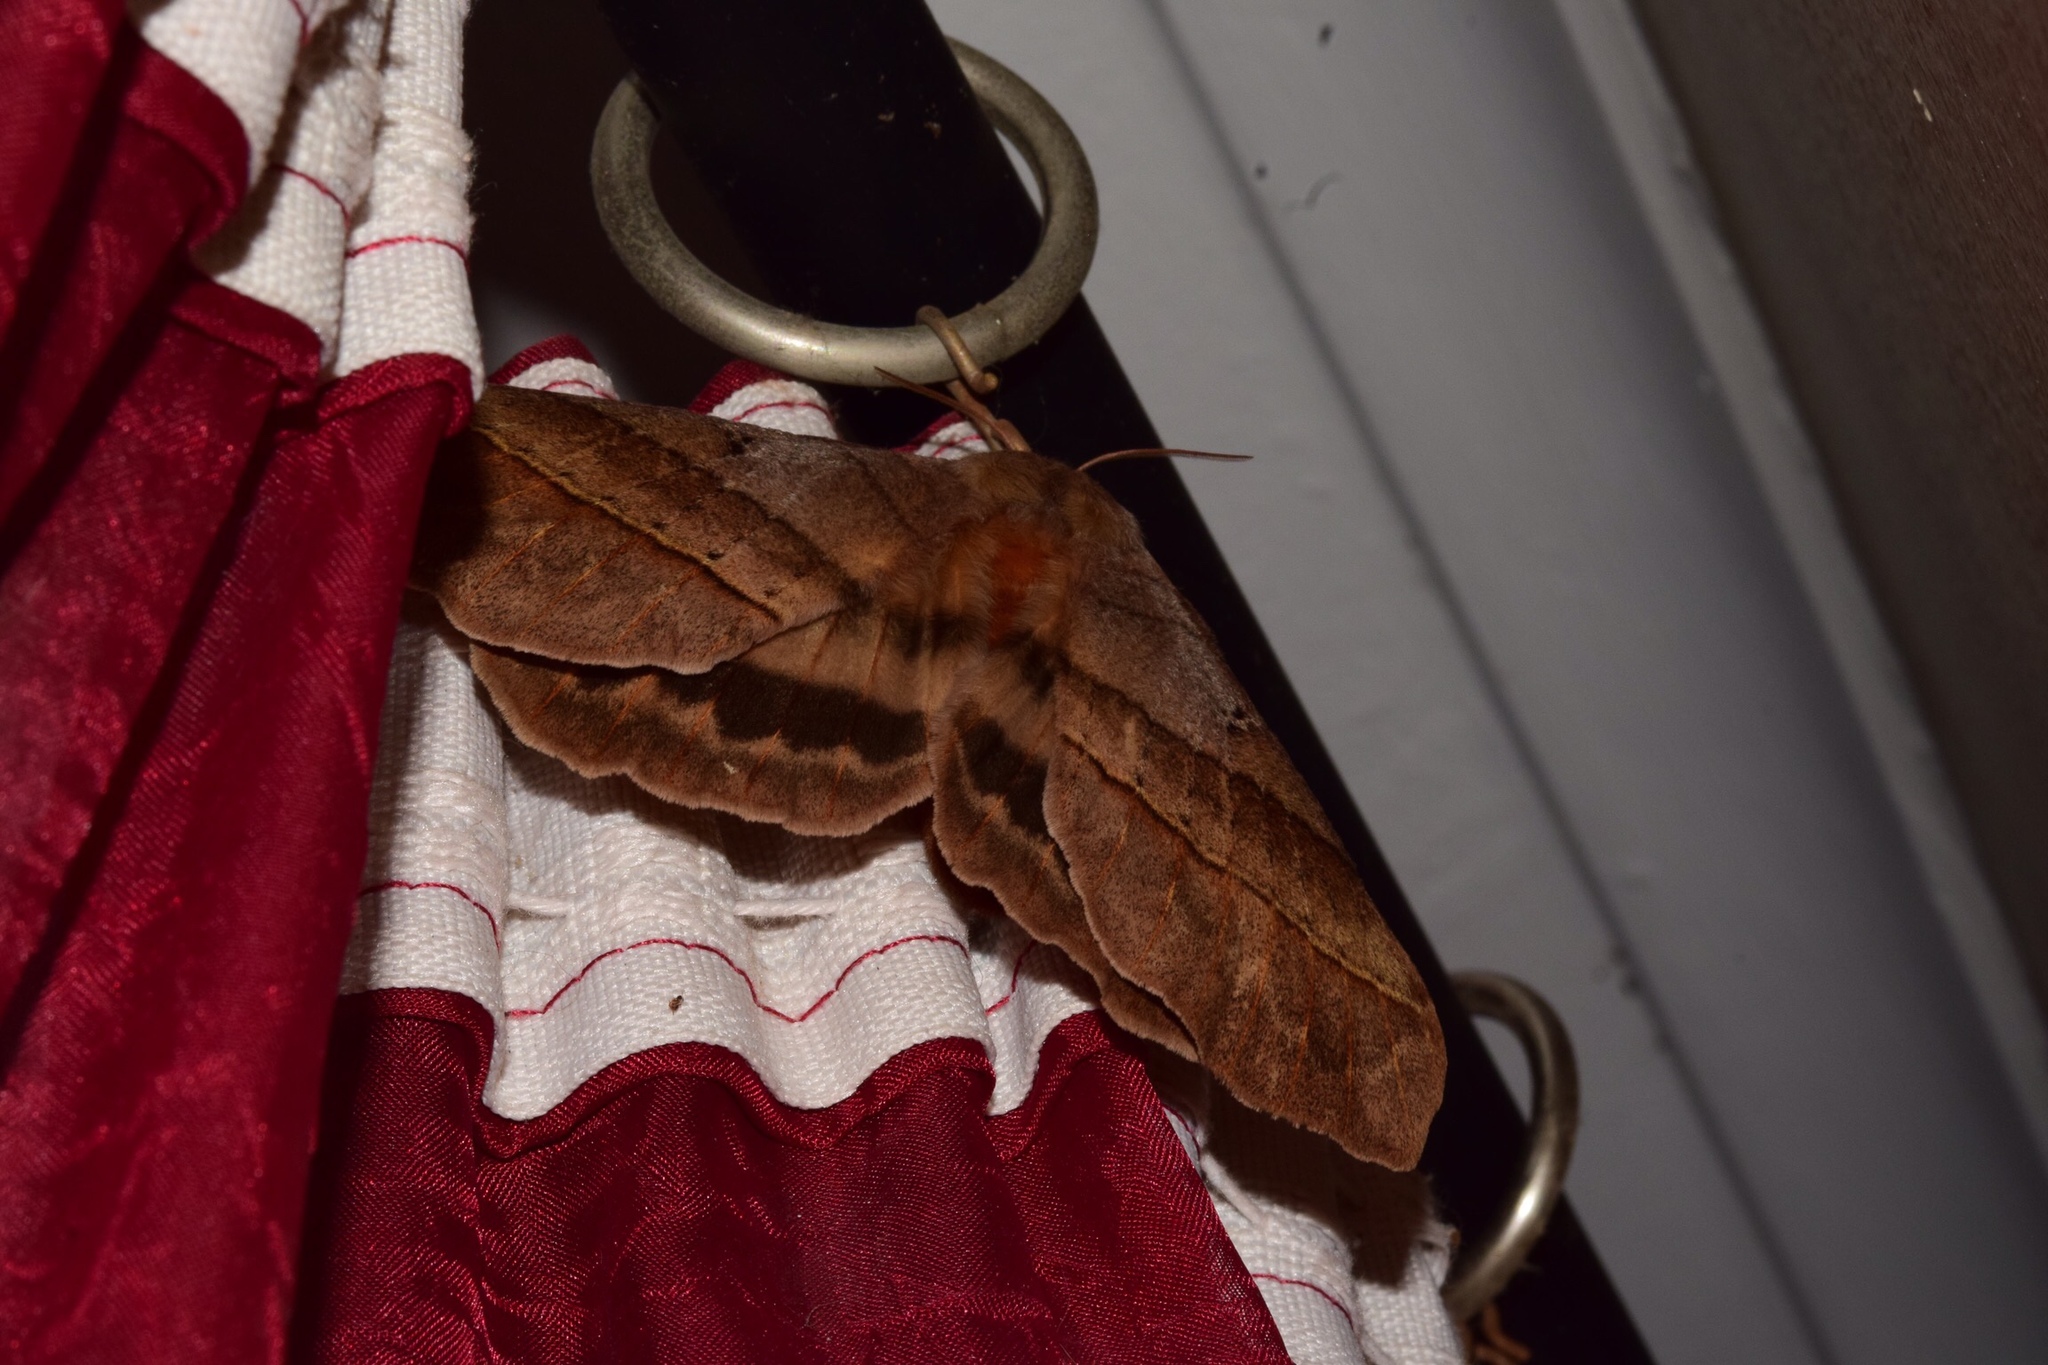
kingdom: Animalia
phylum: Arthropoda
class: Insecta
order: Lepidoptera
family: Eupterotidae
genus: Jana
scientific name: Jana eurymas
